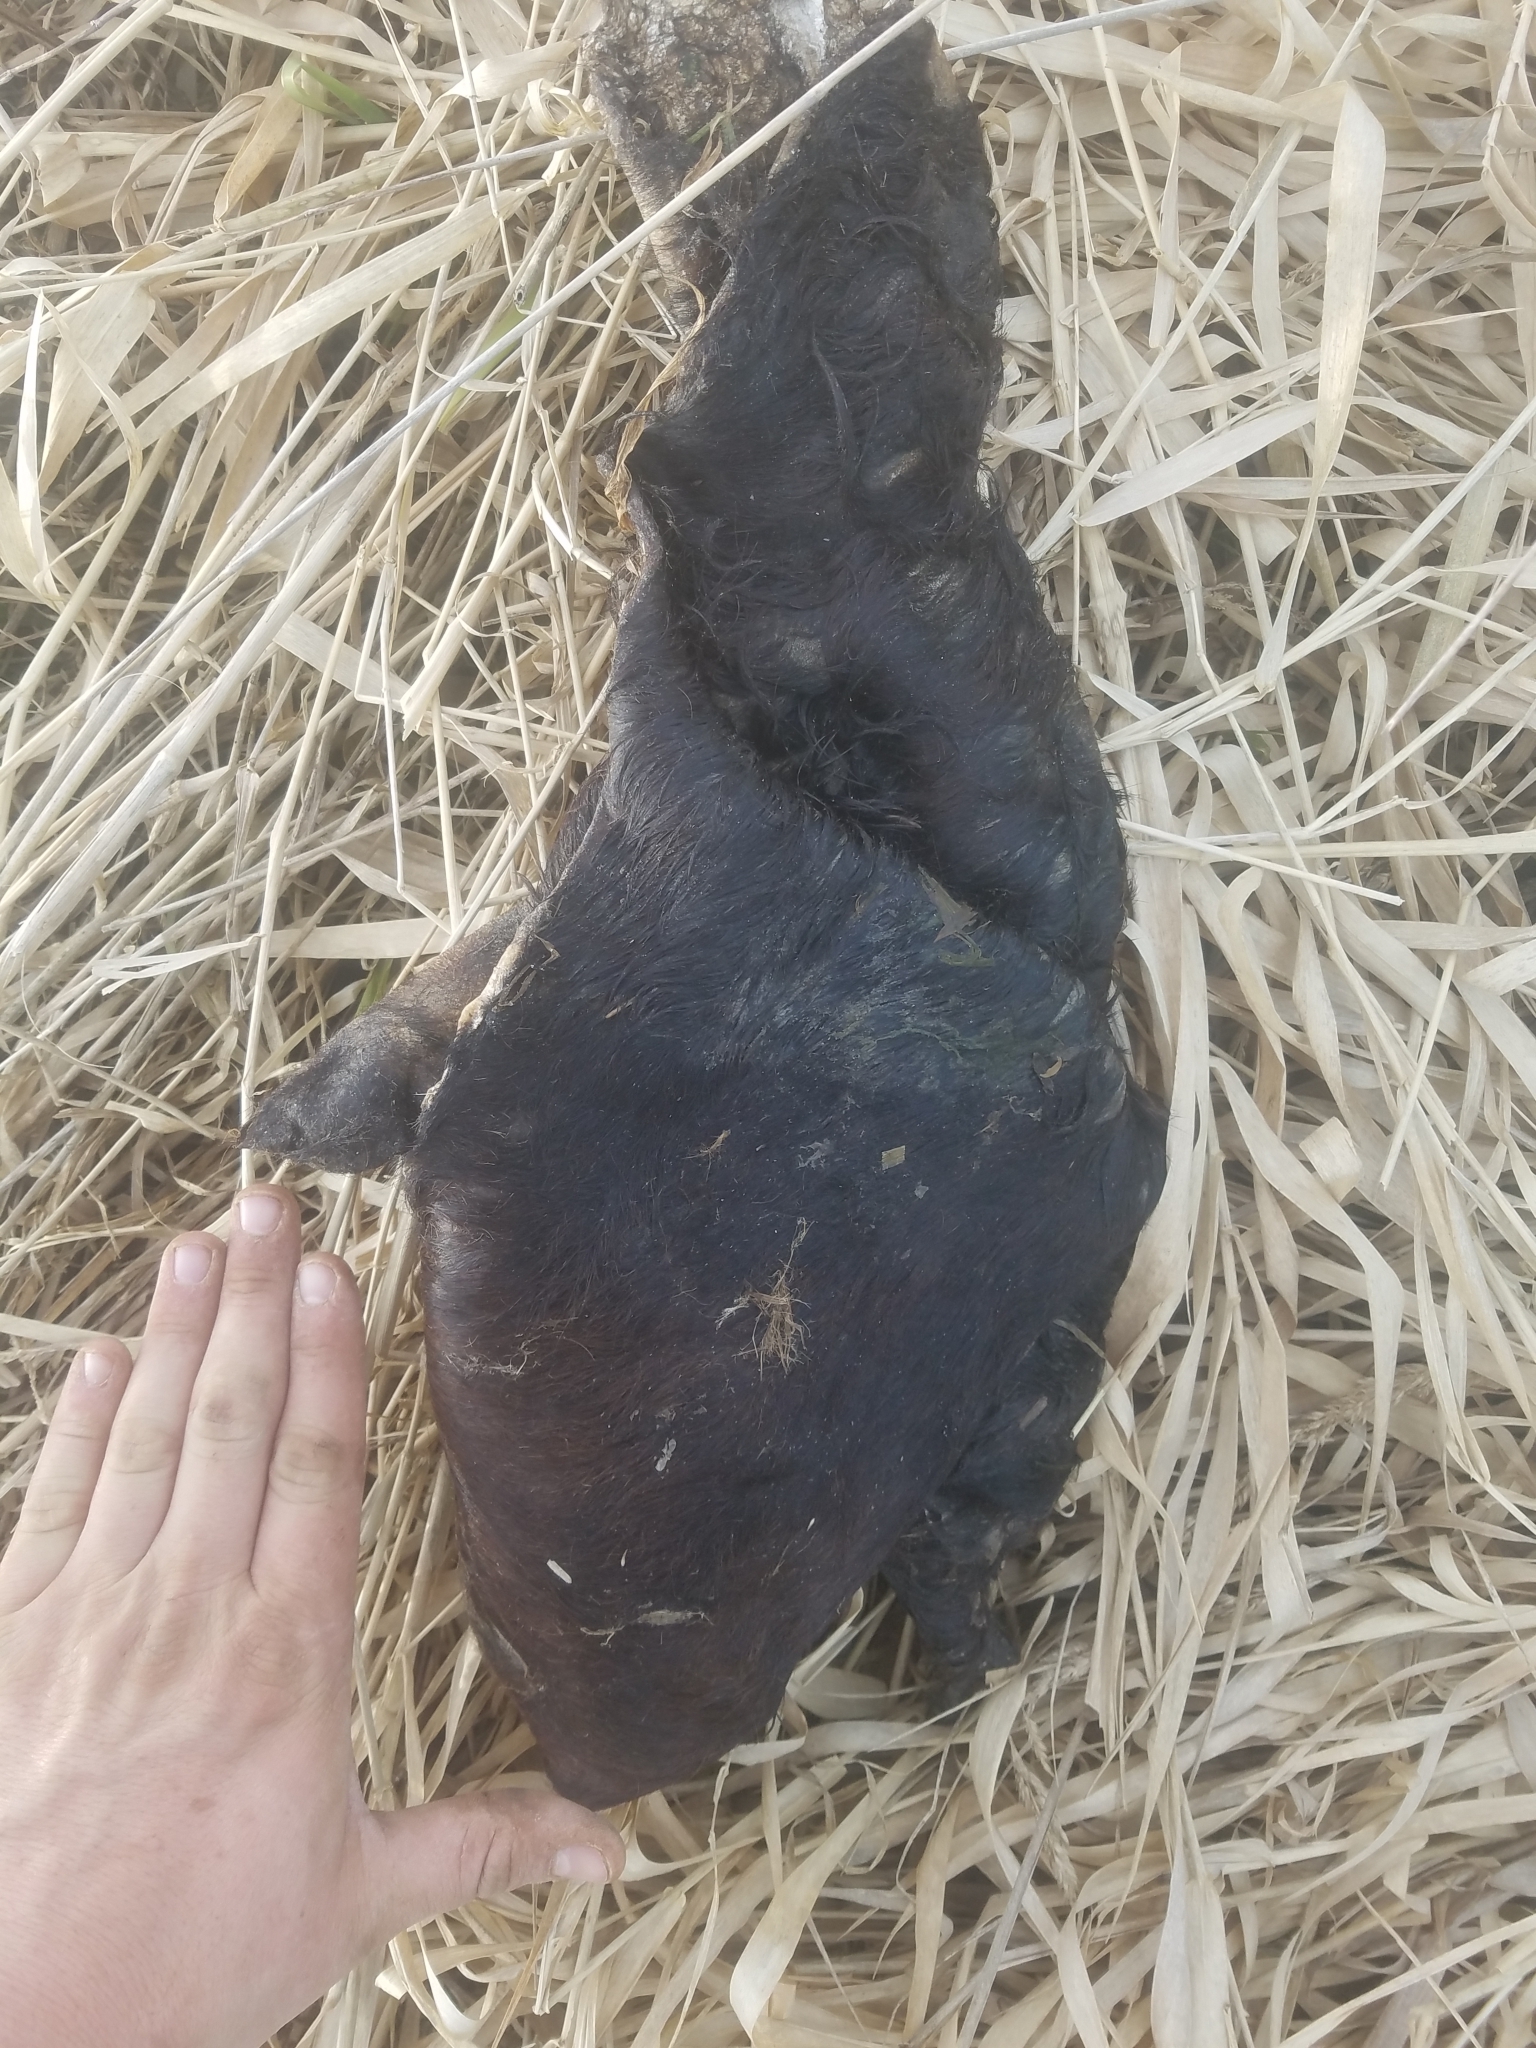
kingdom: Animalia
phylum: Chordata
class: Mammalia
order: Carnivora
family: Mustelidae
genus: Lontra
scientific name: Lontra canadensis
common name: North american river otter
